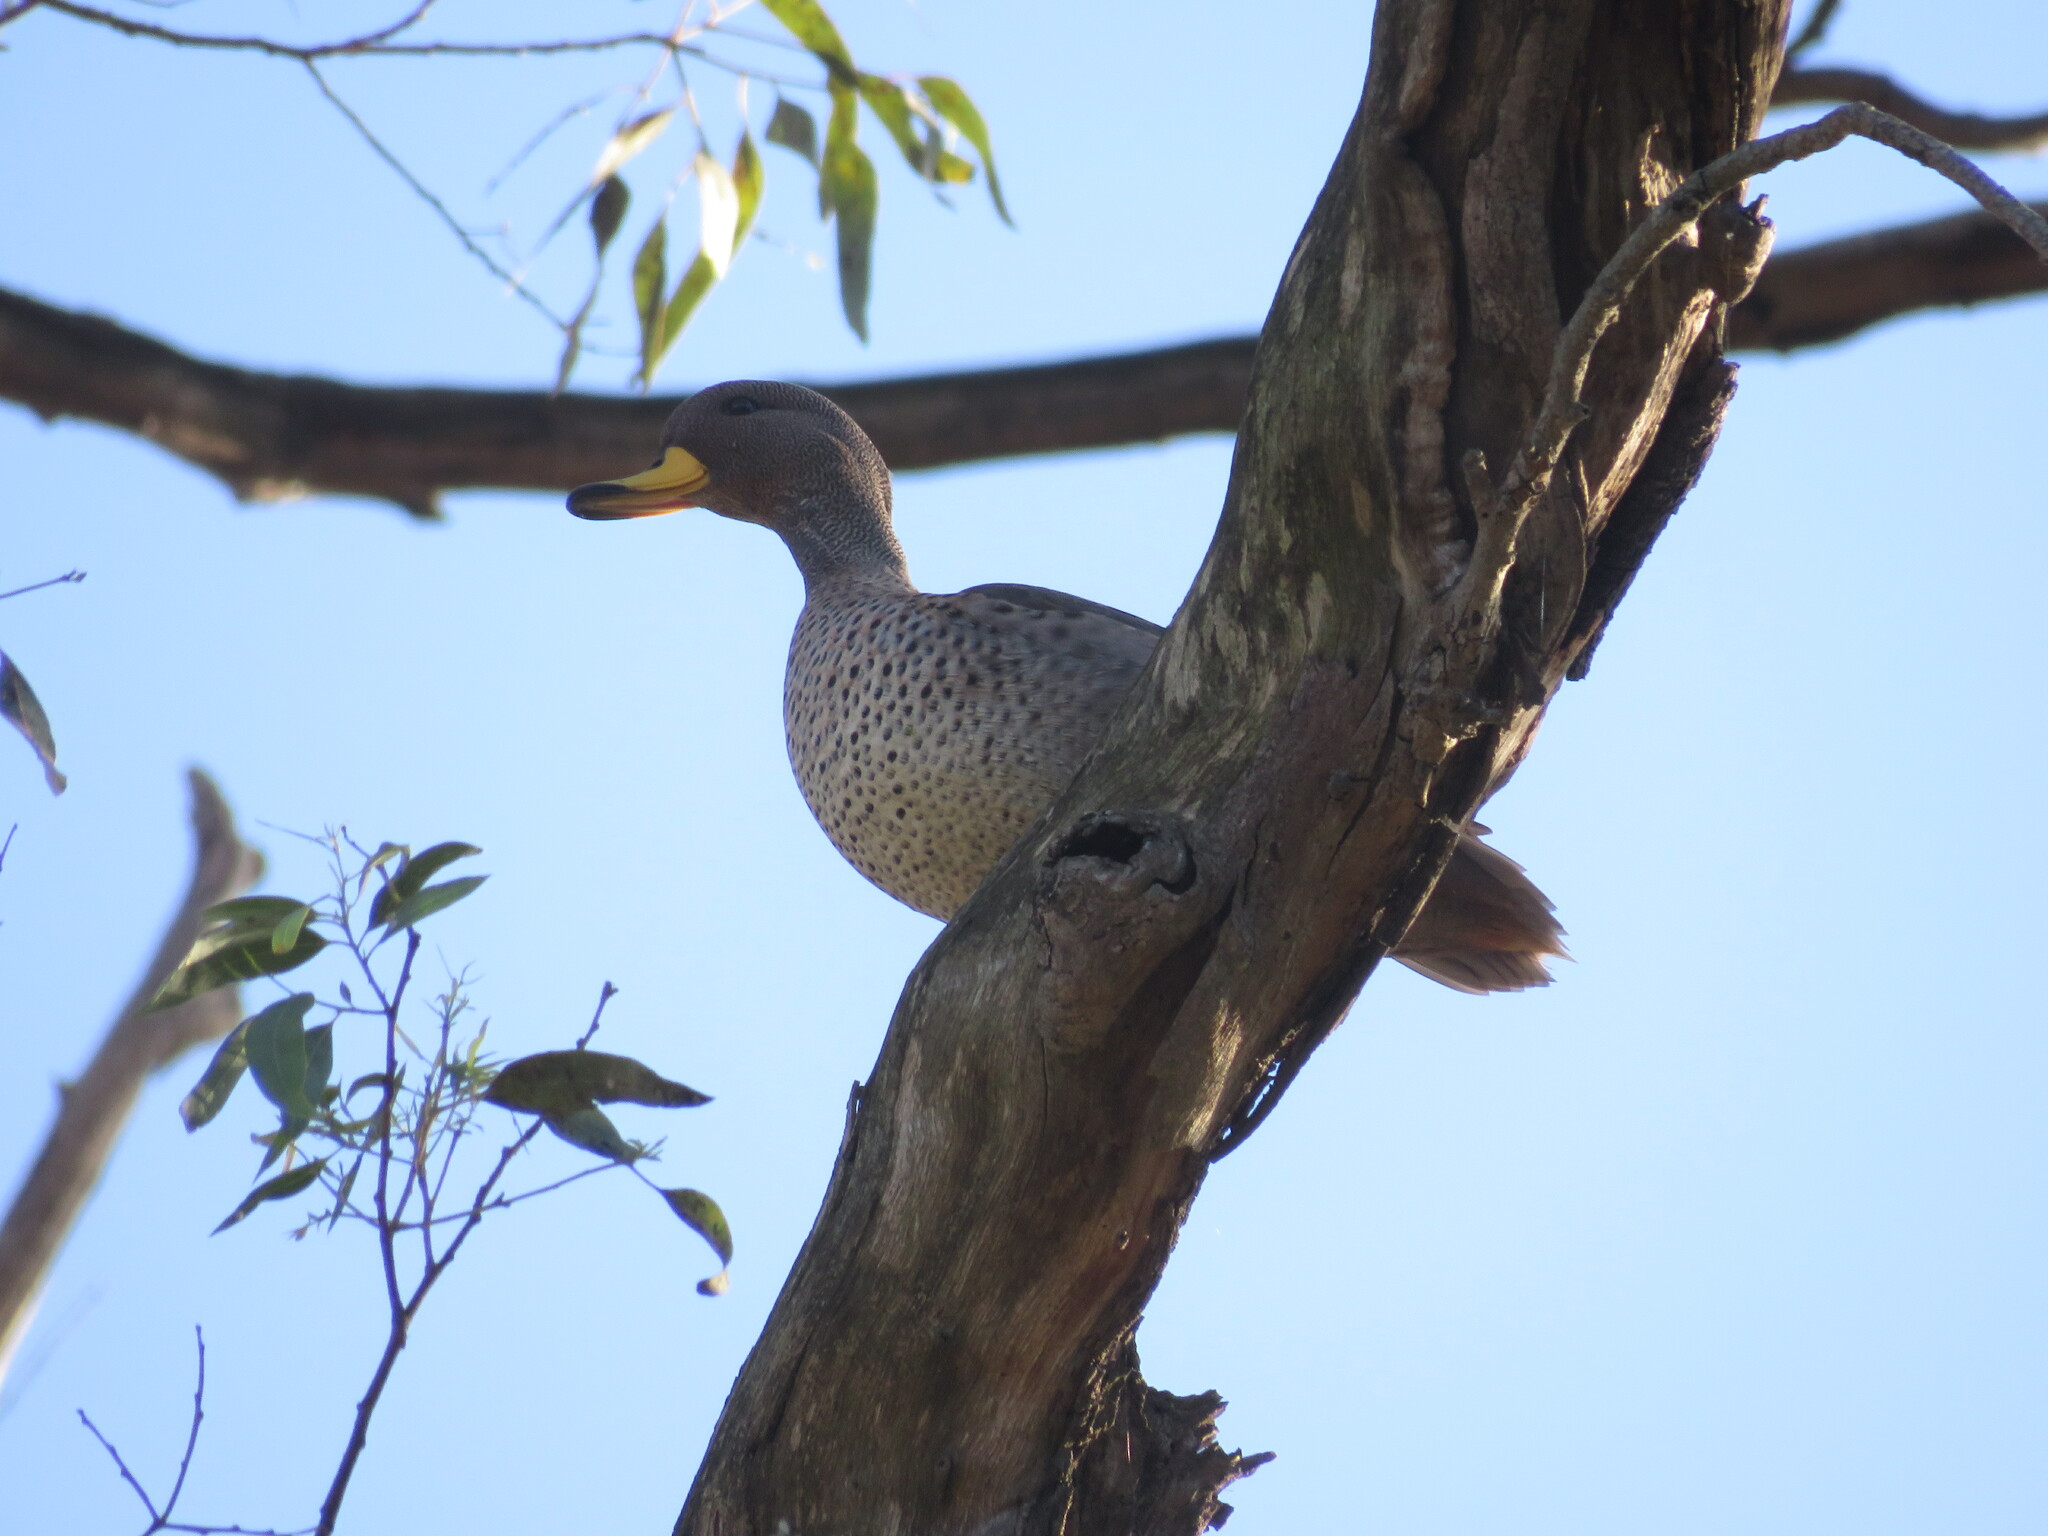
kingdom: Animalia
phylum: Chordata
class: Aves
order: Anseriformes
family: Anatidae
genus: Anas
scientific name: Anas flavirostris
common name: Yellow-billed teal
